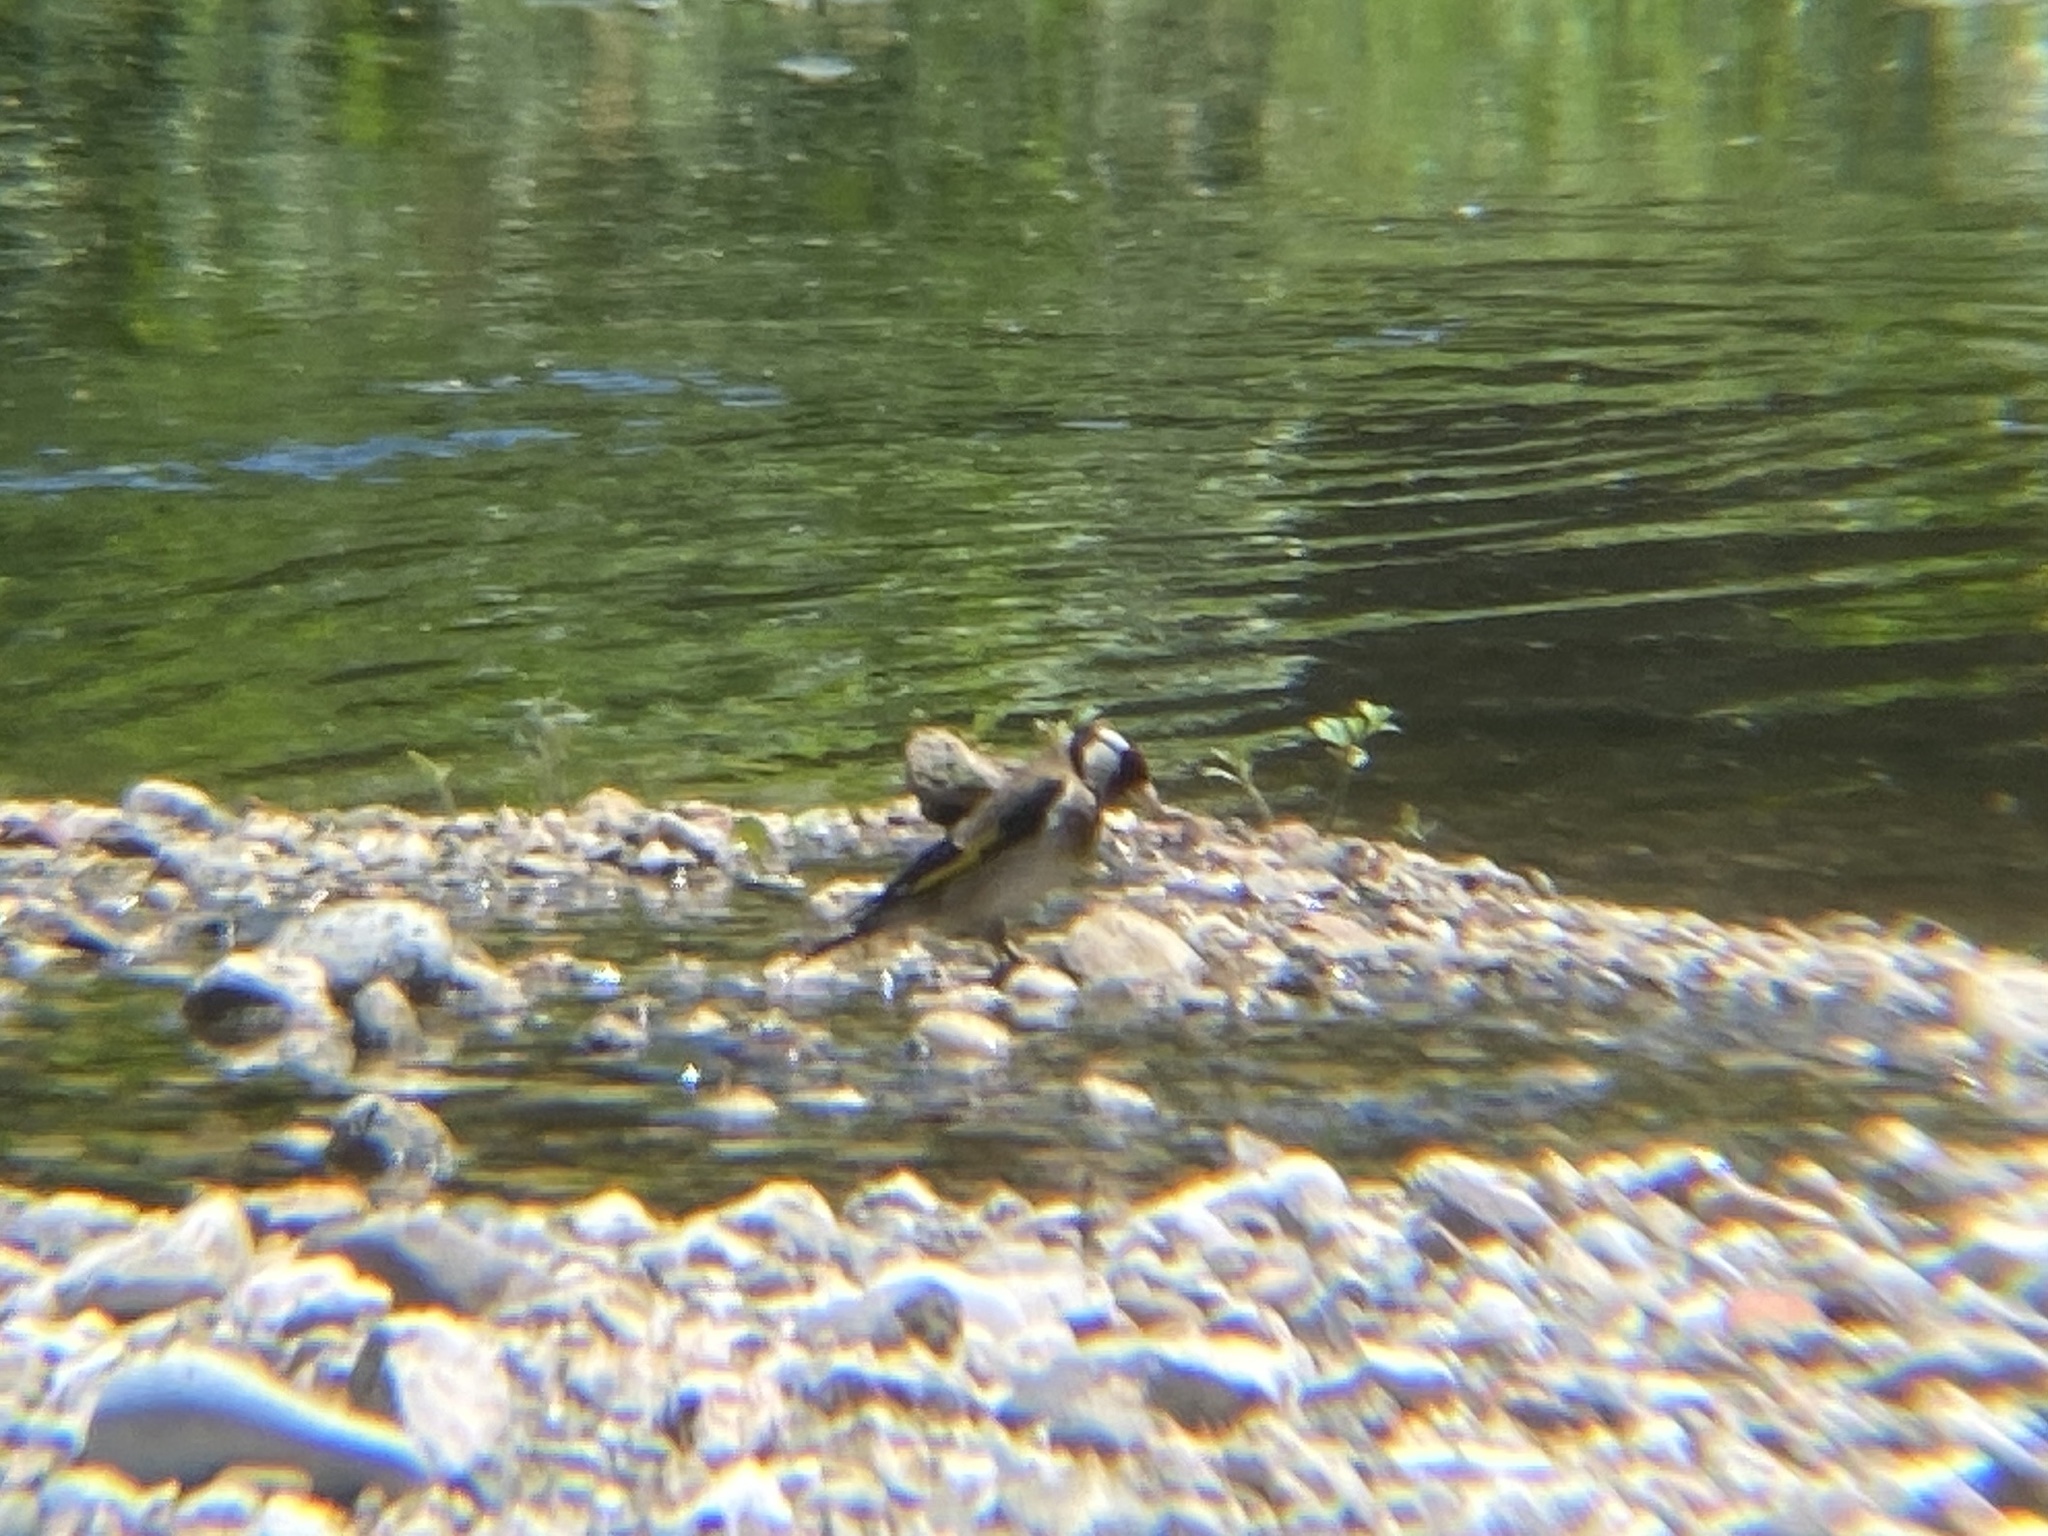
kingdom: Animalia
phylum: Chordata
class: Aves
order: Passeriformes
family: Fringillidae
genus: Carduelis
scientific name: Carduelis carduelis
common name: European goldfinch
